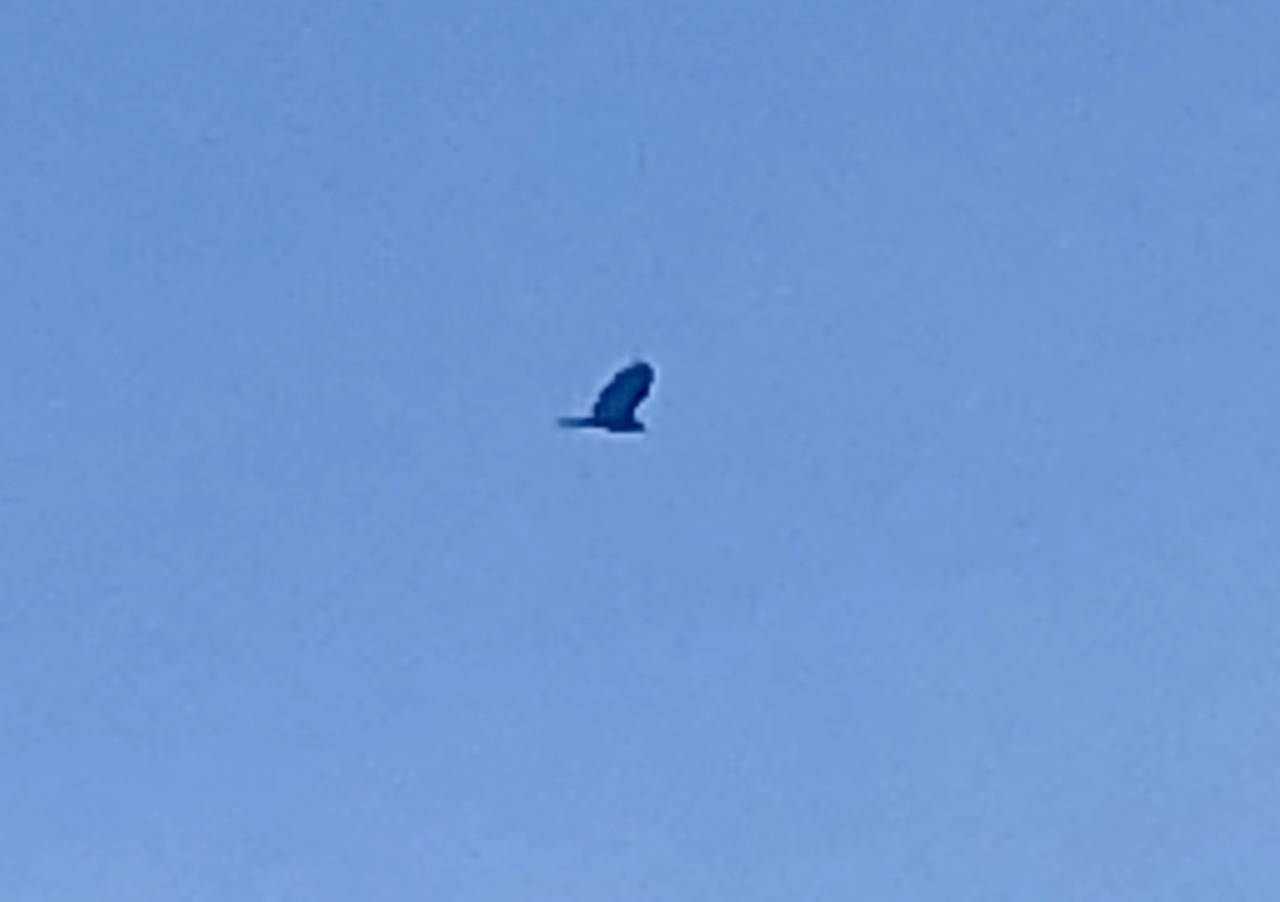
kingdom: Animalia
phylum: Chordata
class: Aves
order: Accipitriformes
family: Cathartidae
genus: Cathartes
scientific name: Cathartes aura
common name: Turkey vulture
